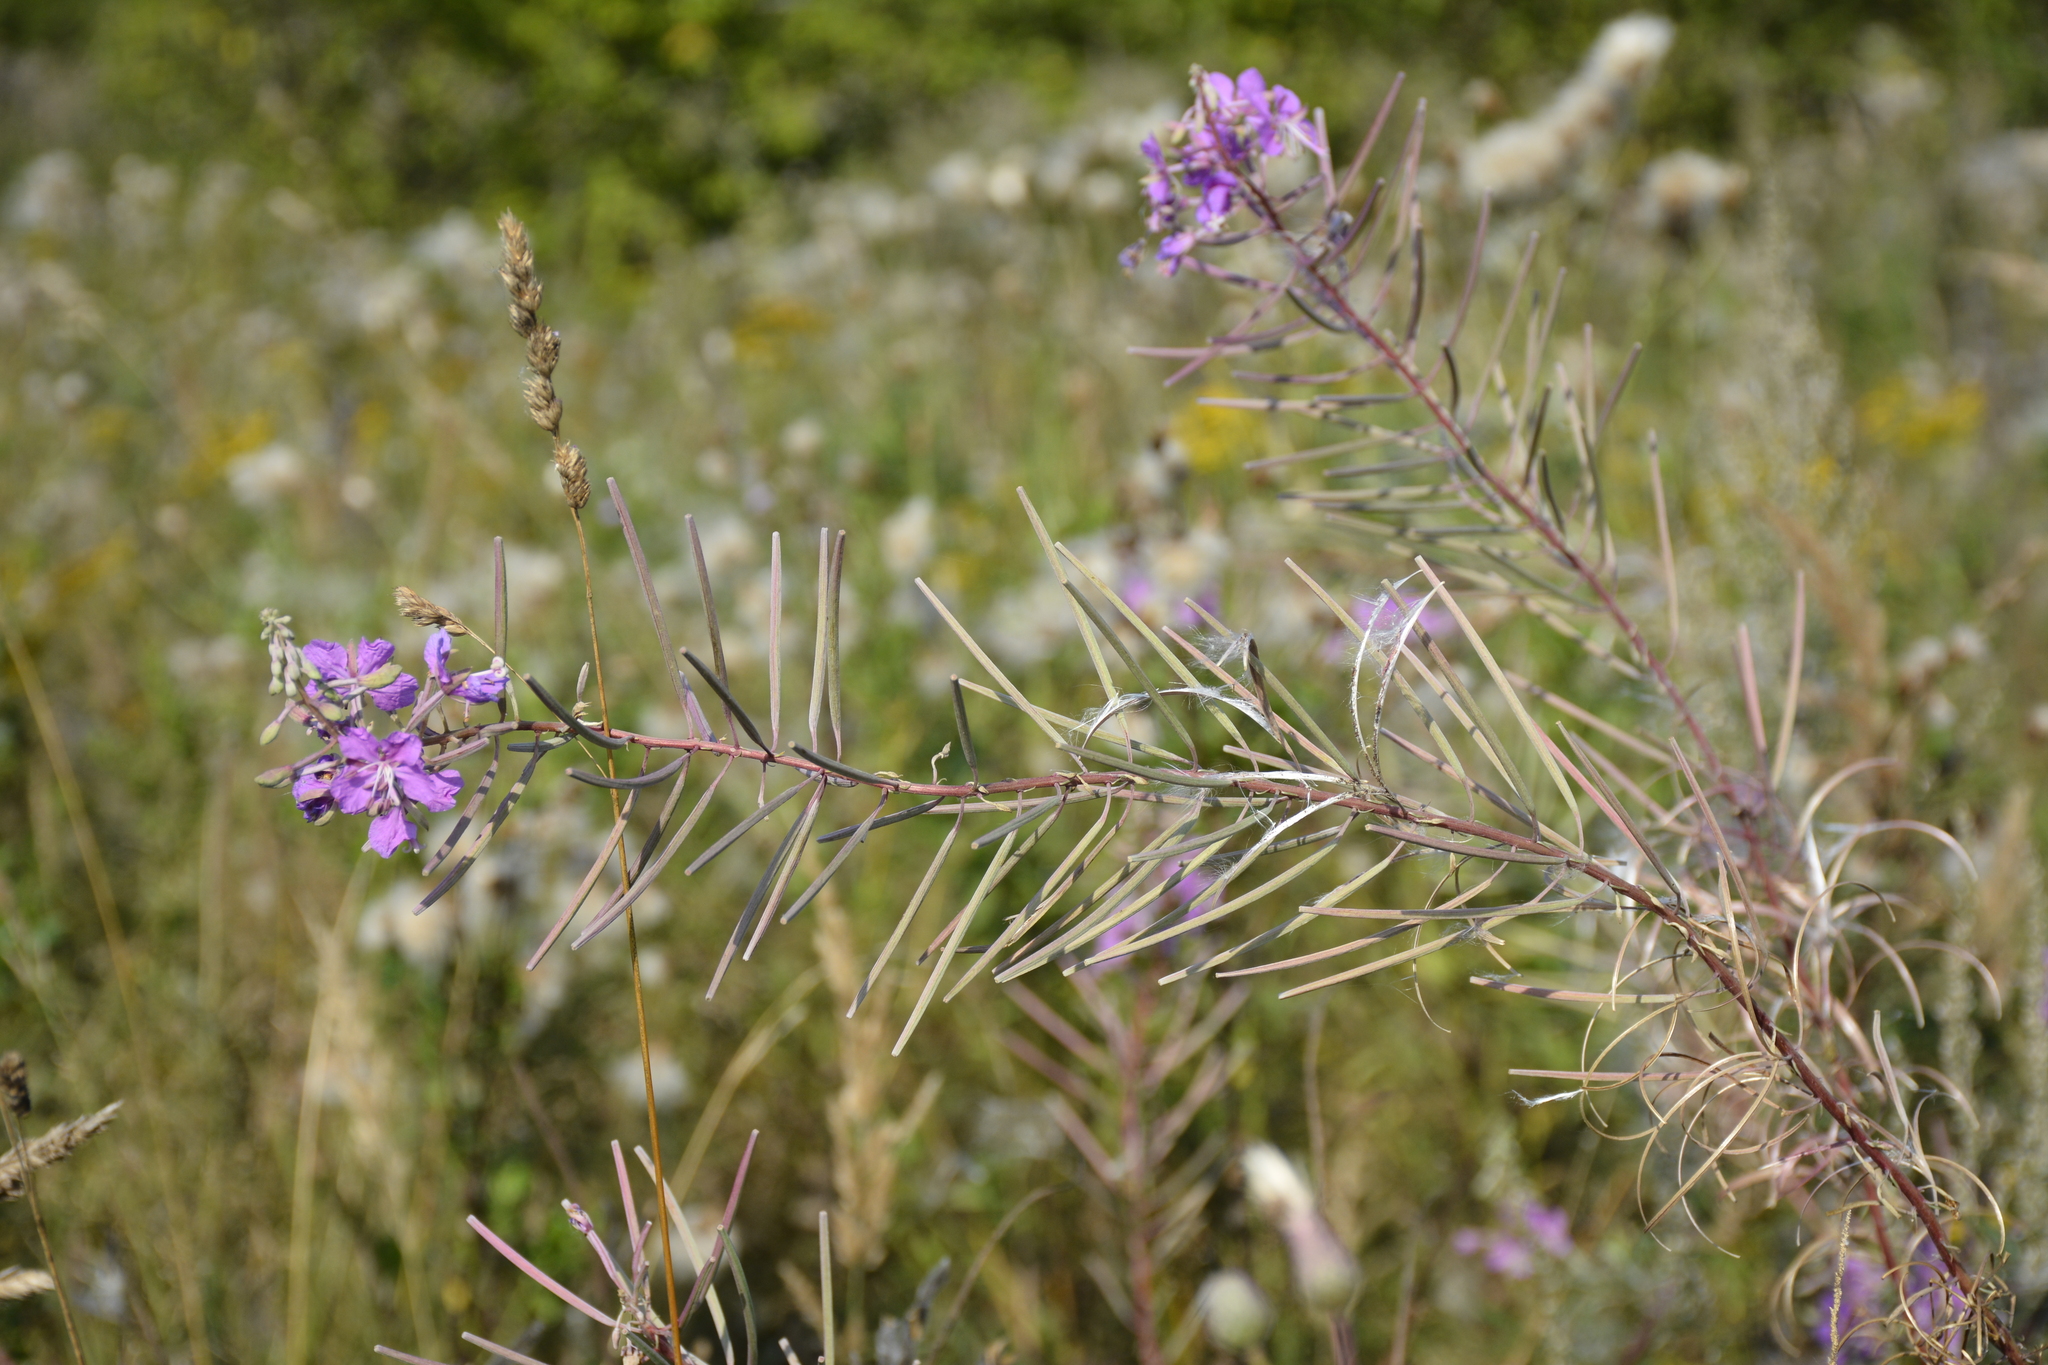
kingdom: Plantae
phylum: Tracheophyta
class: Magnoliopsida
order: Myrtales
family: Onagraceae
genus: Chamaenerion
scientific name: Chamaenerion angustifolium
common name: Fireweed
